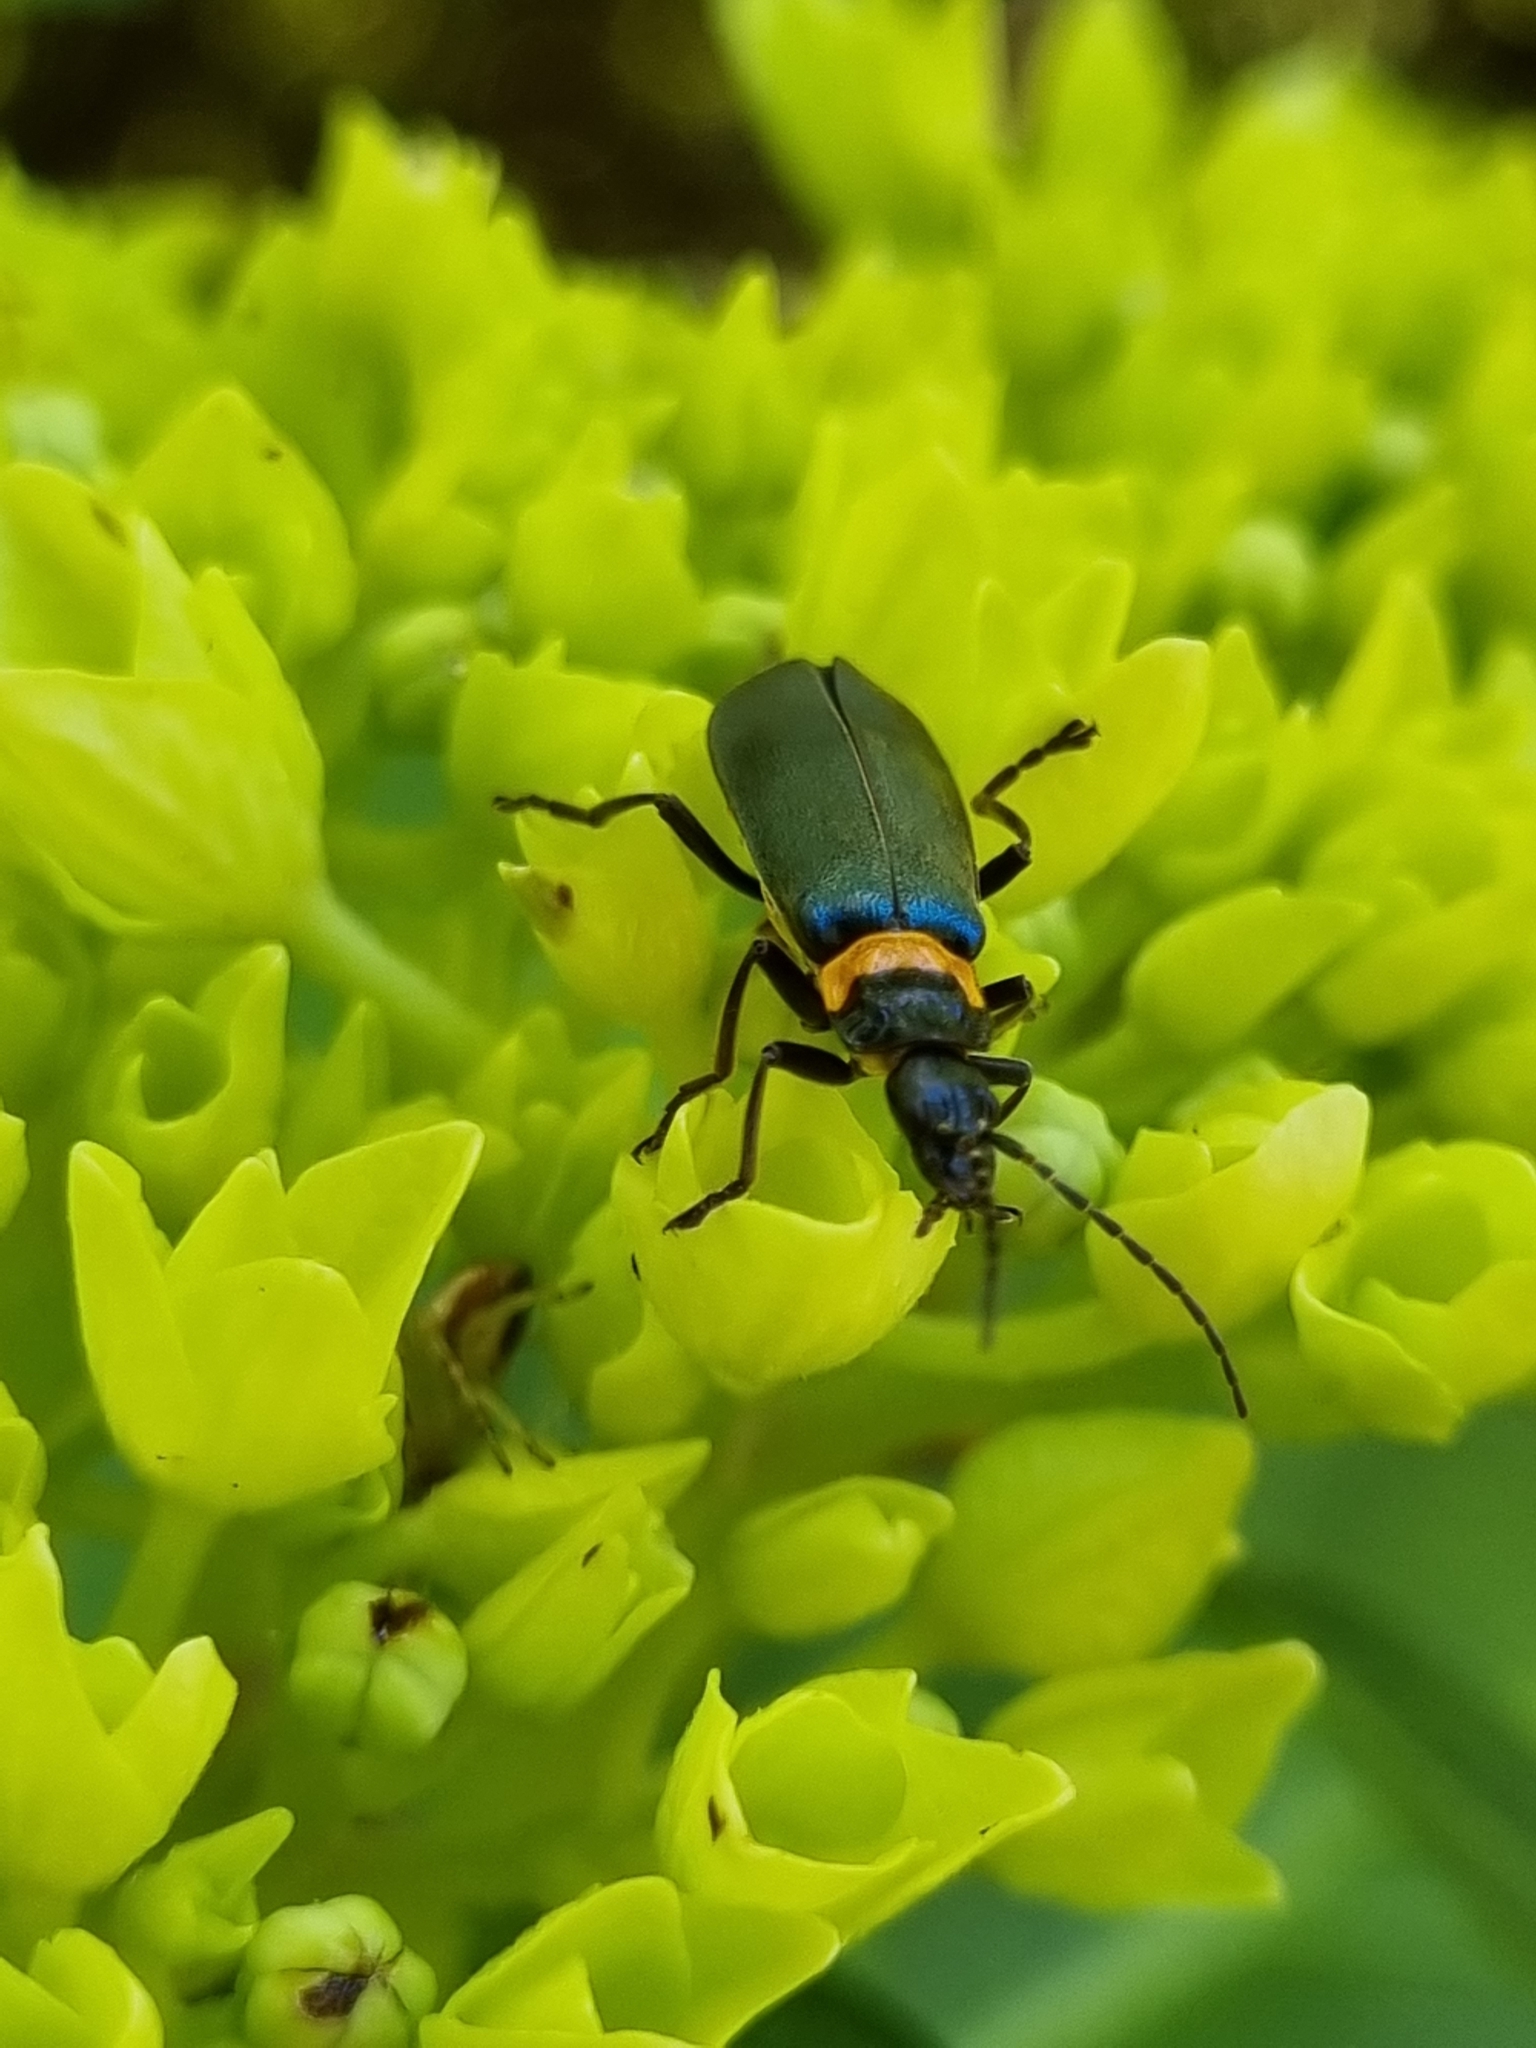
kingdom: Animalia
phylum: Arthropoda
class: Insecta
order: Coleoptera
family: Cantharidae
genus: Chauliognathus
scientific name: Chauliognathus
